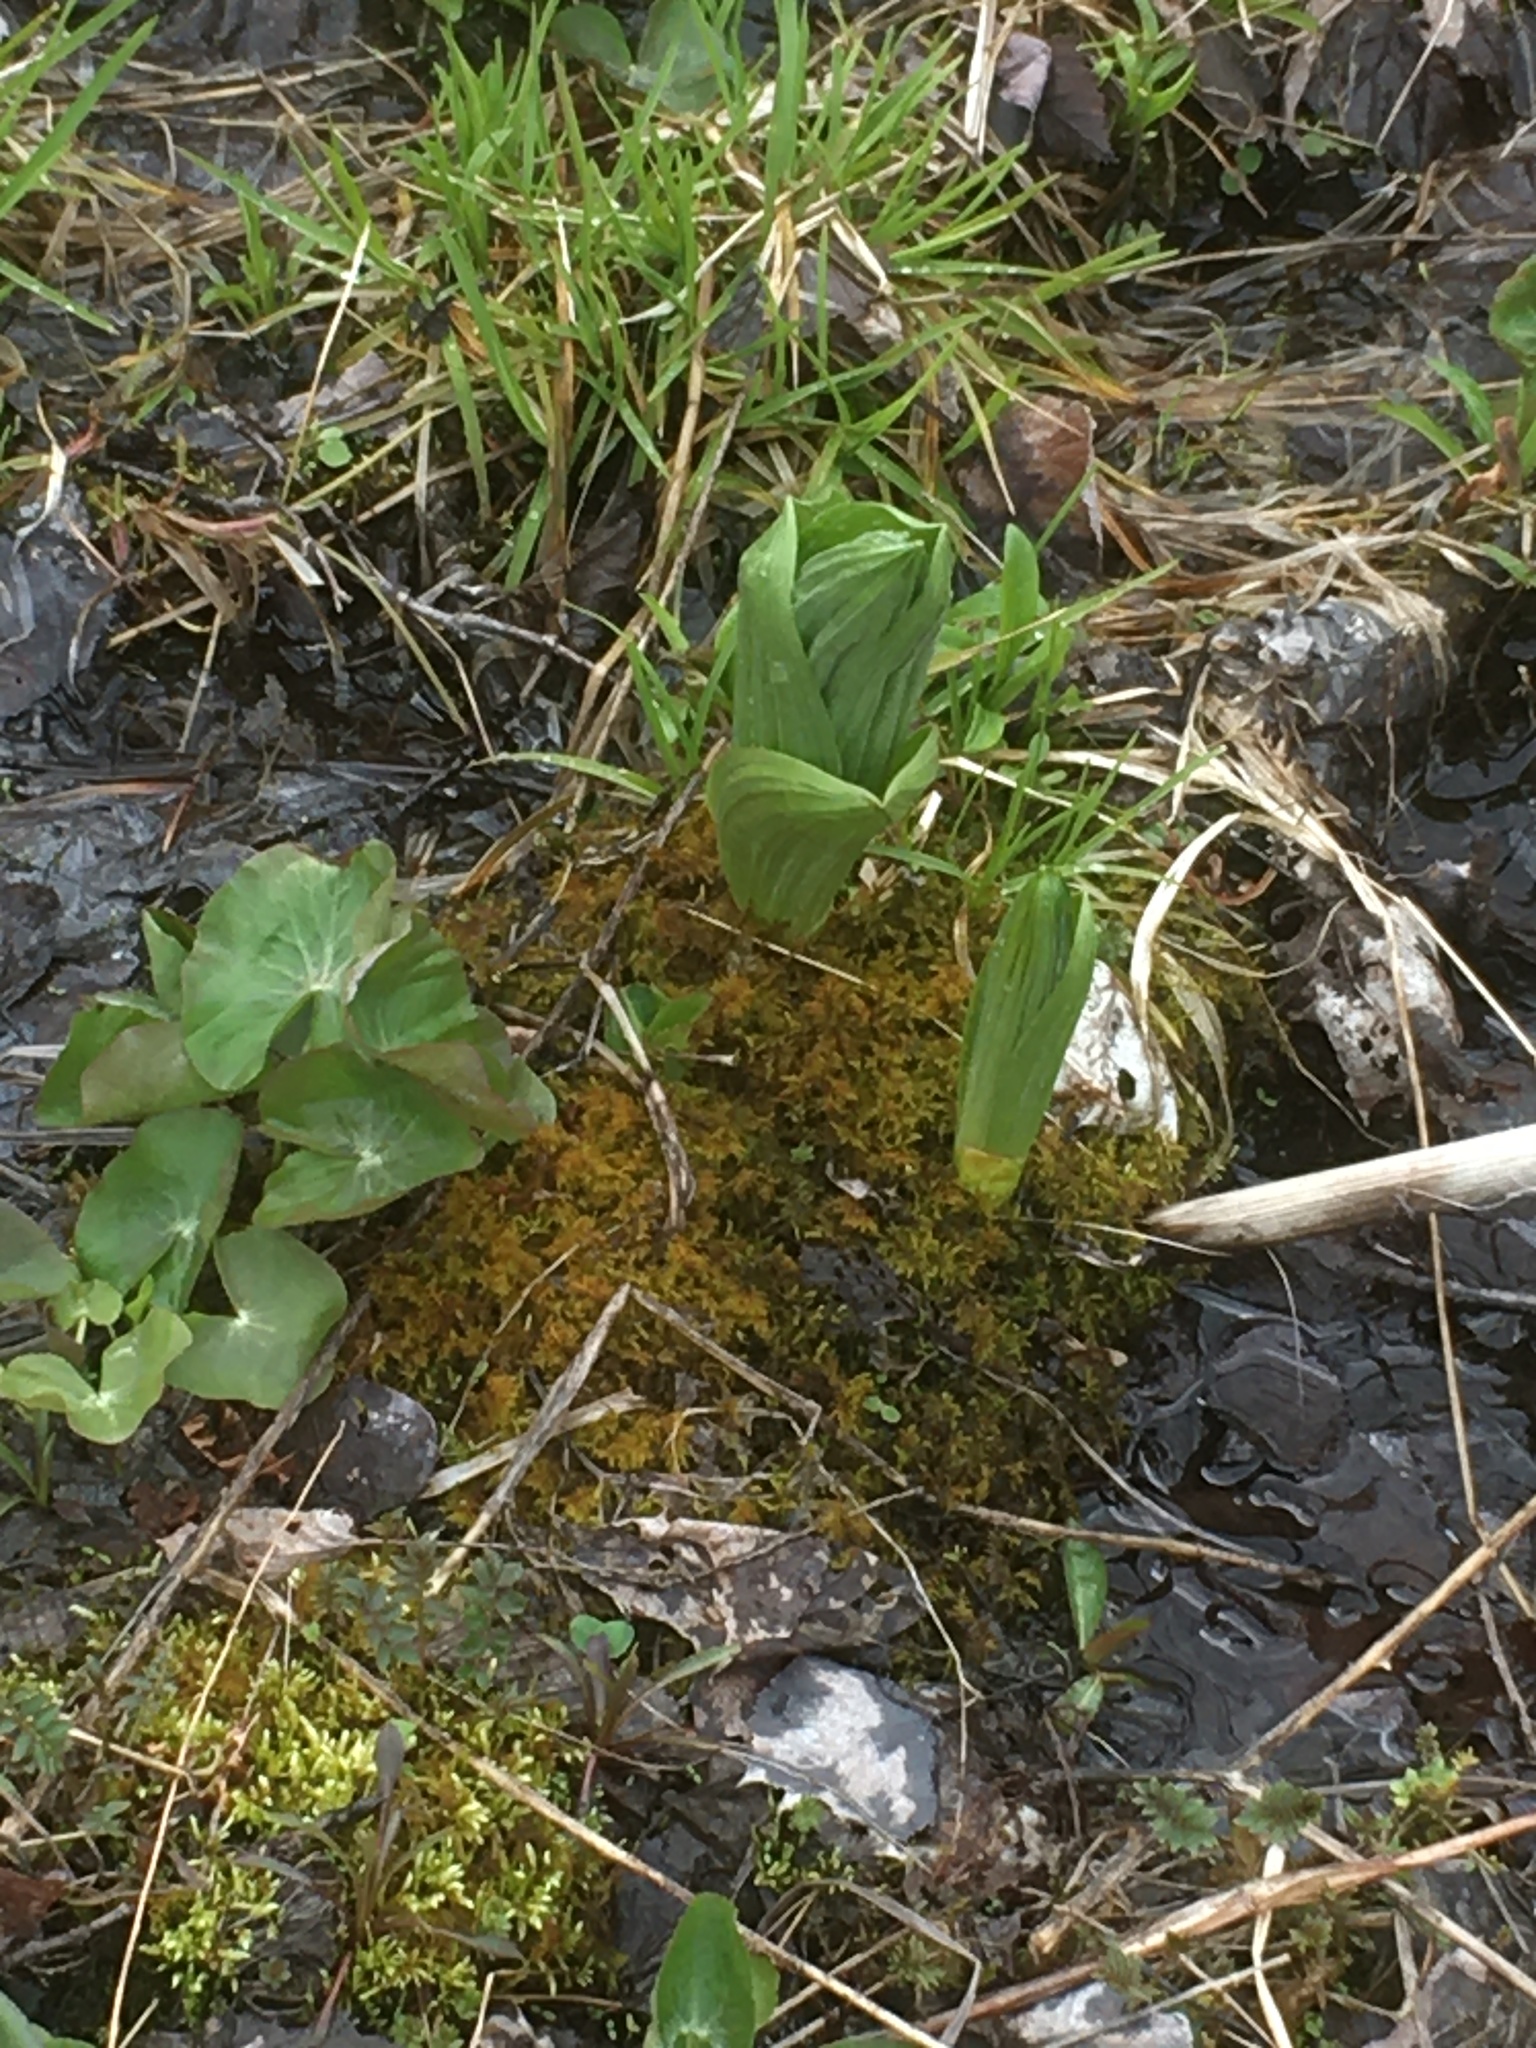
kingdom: Plantae
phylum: Tracheophyta
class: Liliopsida
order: Liliales
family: Melanthiaceae
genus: Veratrum
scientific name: Veratrum viride
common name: American false hellebore
